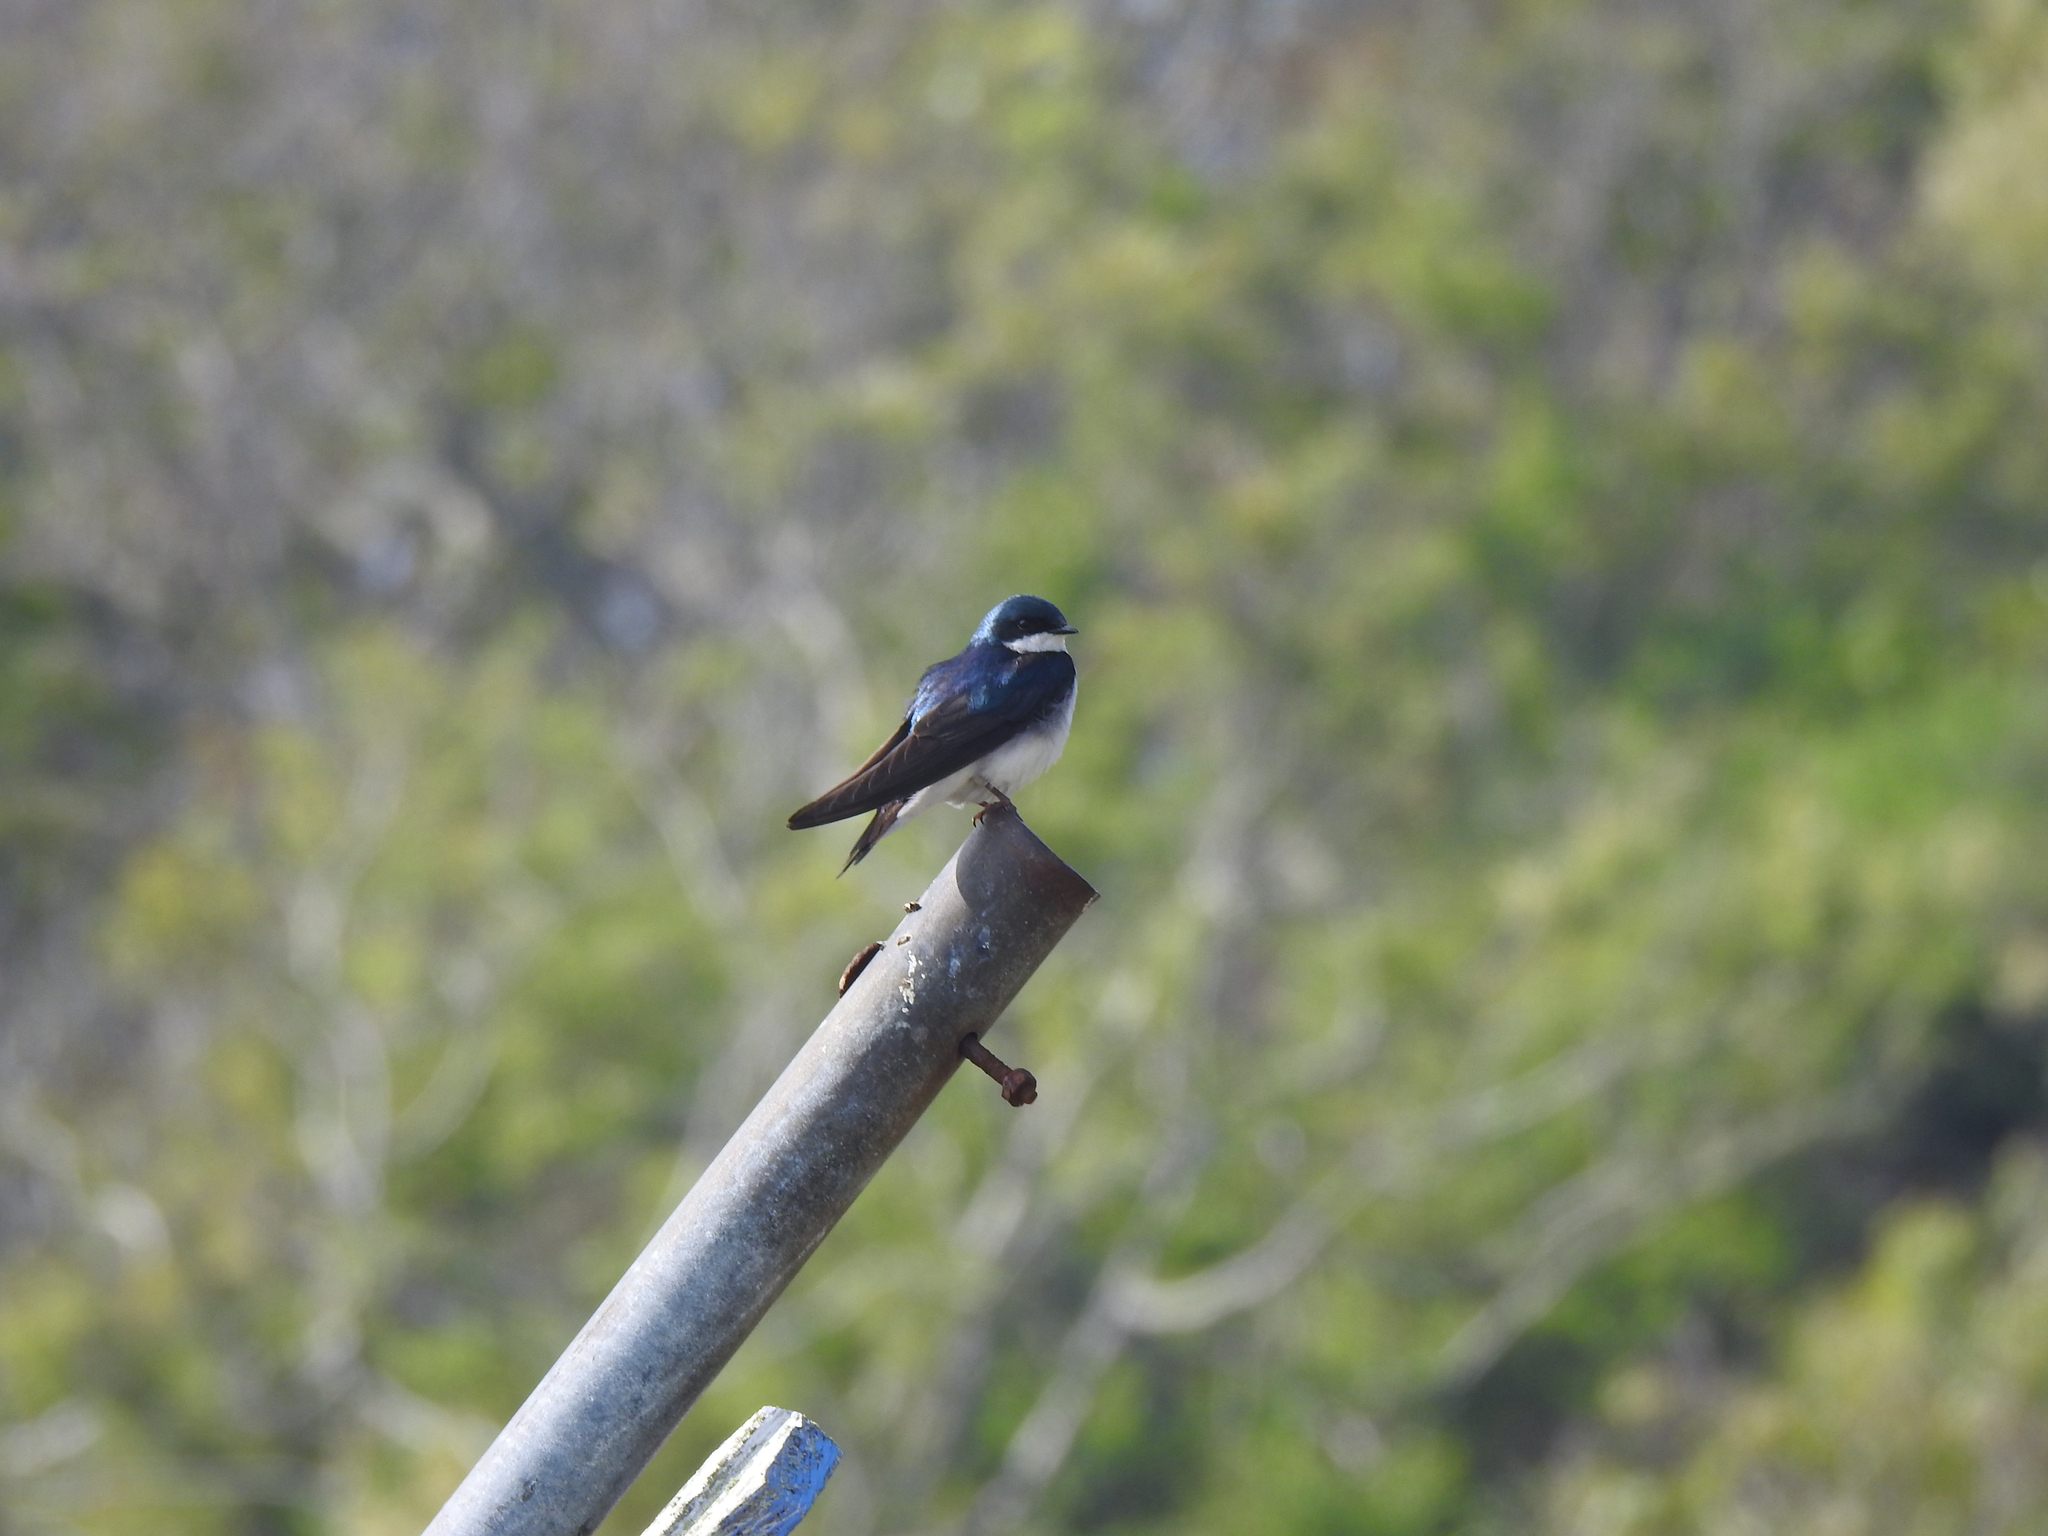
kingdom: Animalia
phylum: Chordata
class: Aves
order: Passeriformes
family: Hirundinidae
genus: Tachycineta
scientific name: Tachycineta bicolor
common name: Tree swallow
